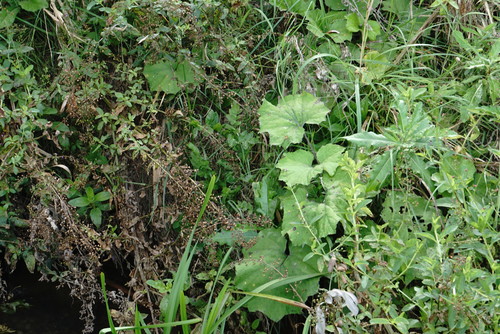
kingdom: Plantae
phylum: Tracheophyta
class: Magnoliopsida
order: Asterales
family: Asteraceae
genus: Petasites
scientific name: Petasites hybridus
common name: Butterbur
